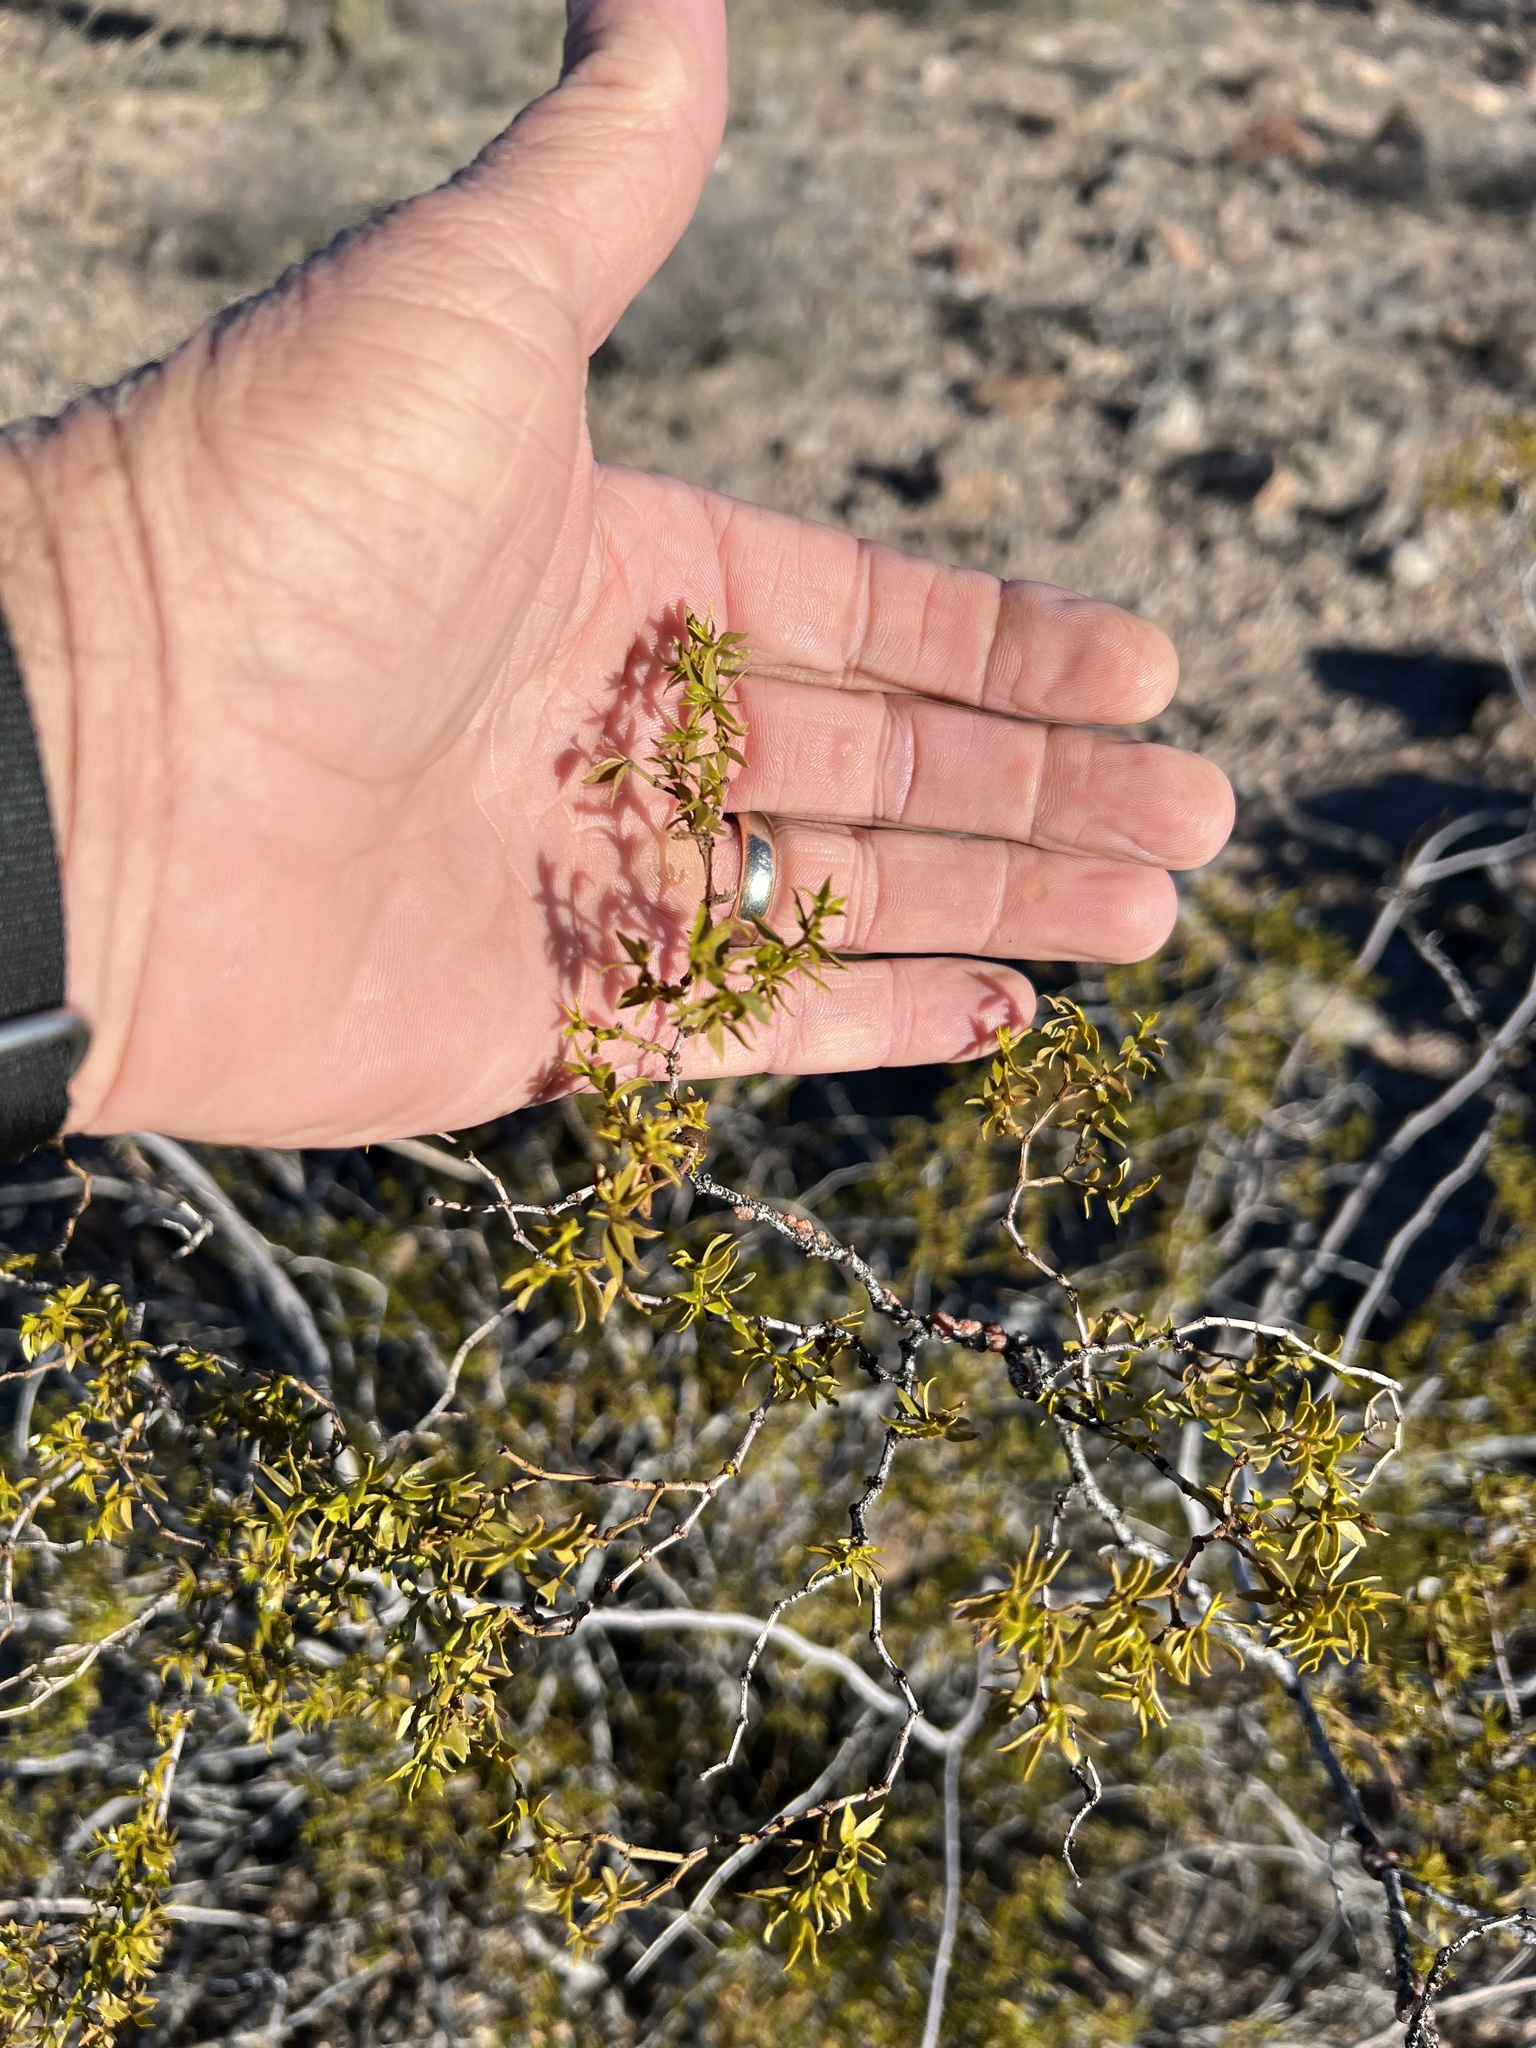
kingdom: Plantae
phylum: Tracheophyta
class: Magnoliopsida
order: Zygophyllales
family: Zygophyllaceae
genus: Larrea
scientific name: Larrea tridentata
